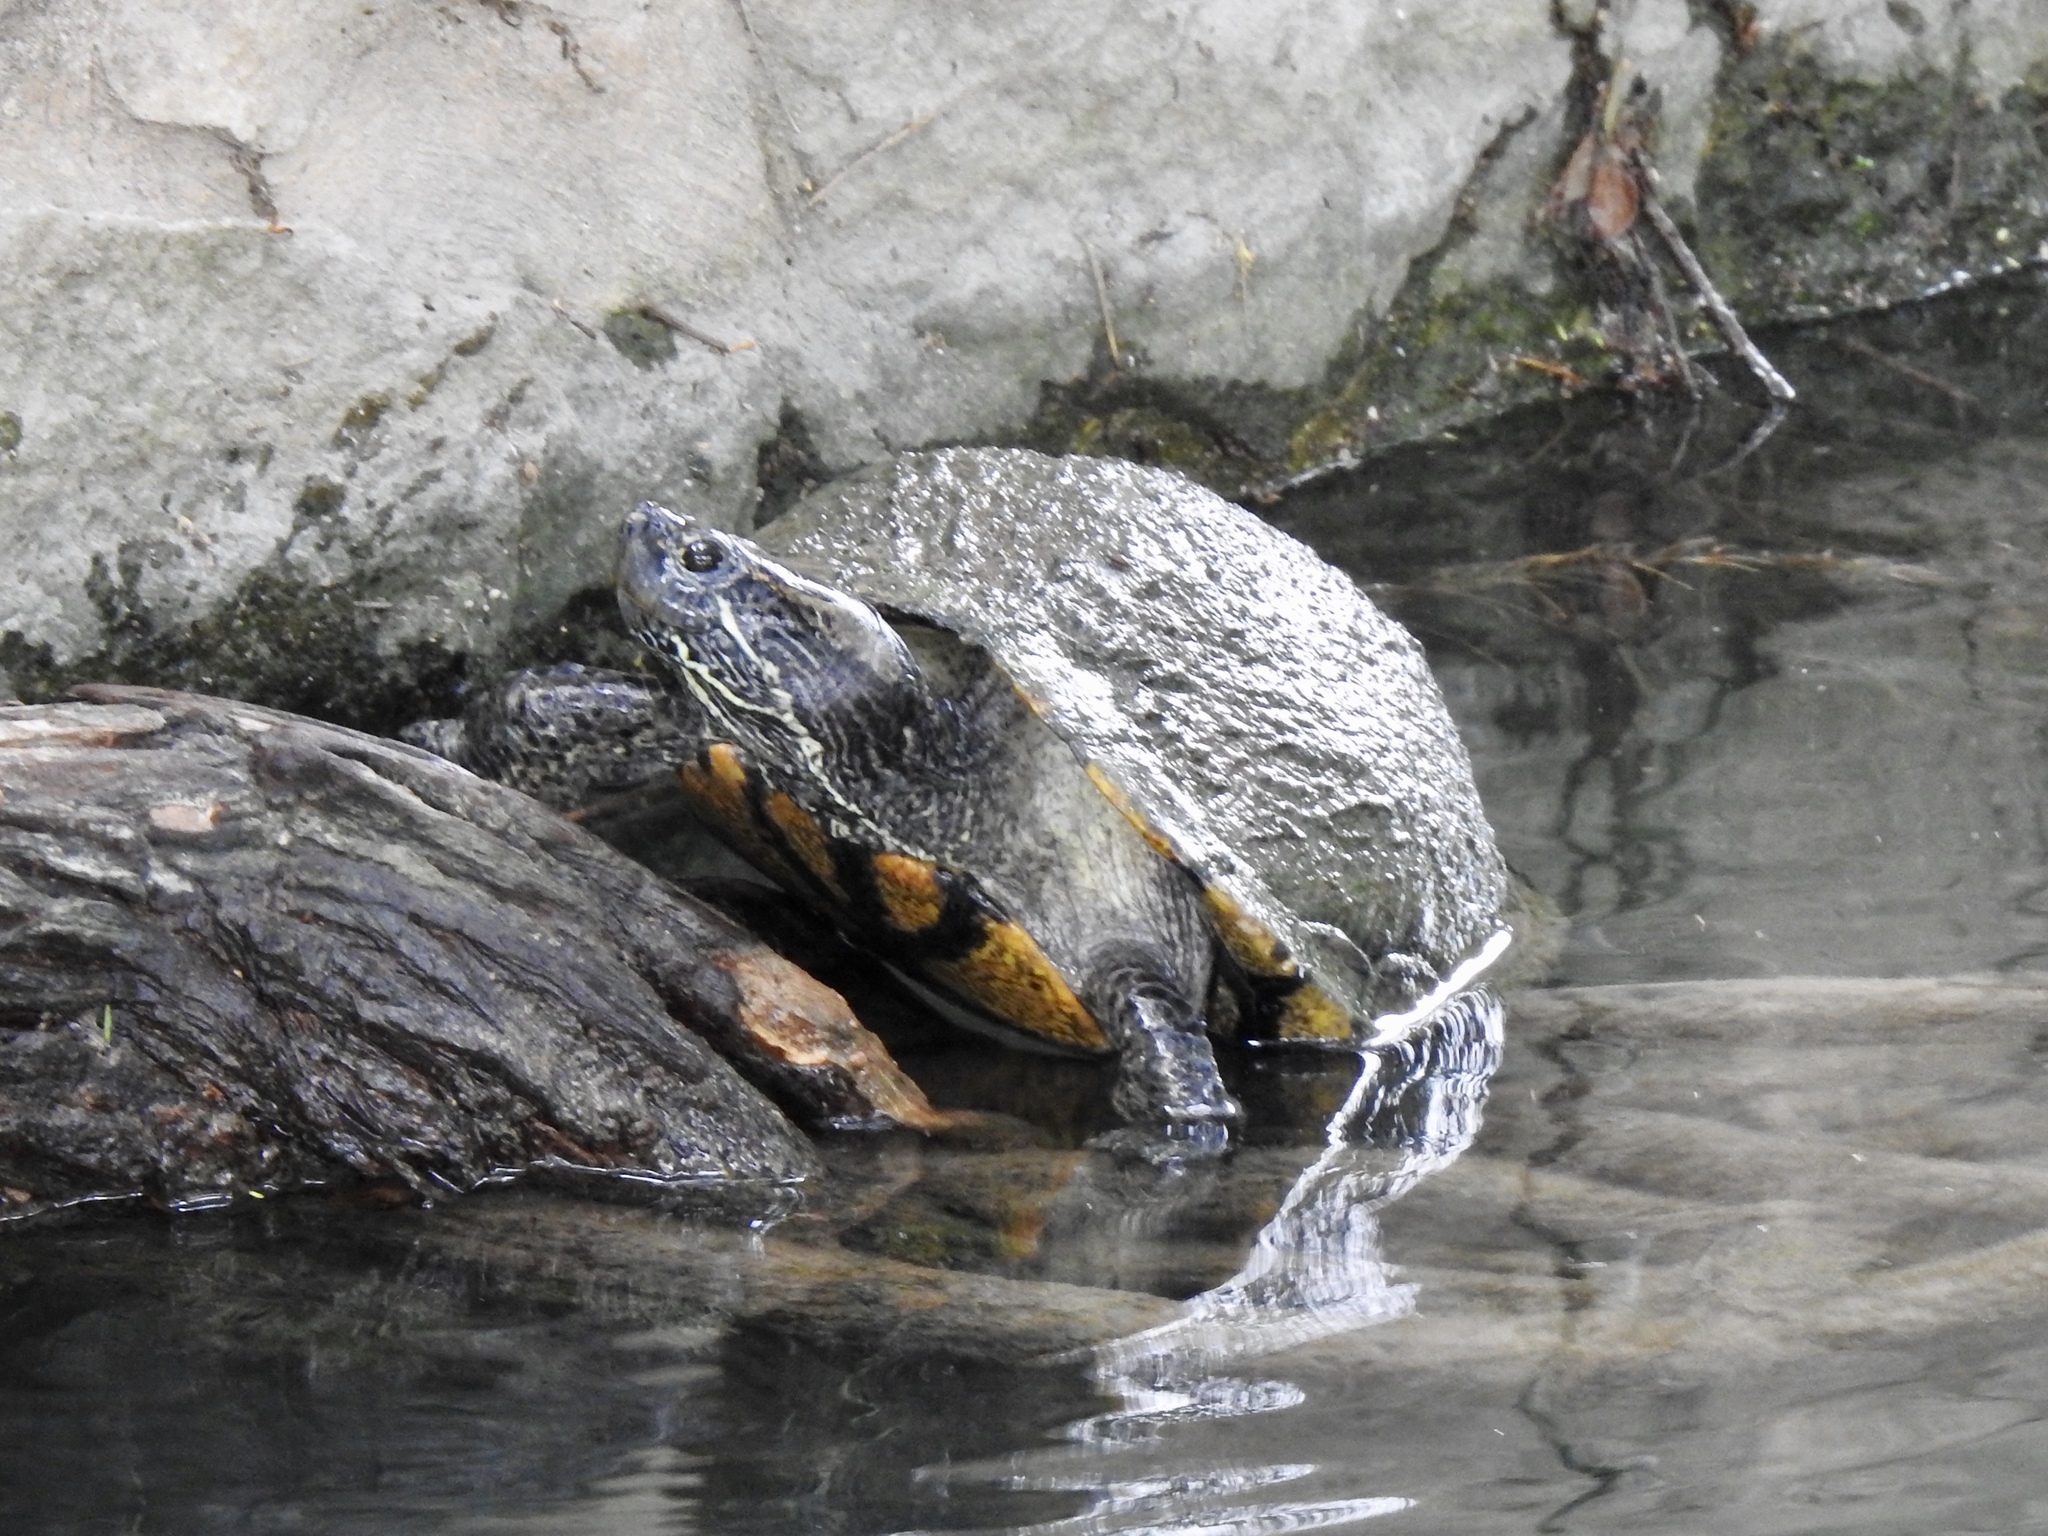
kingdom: Animalia
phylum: Chordata
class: Testudines
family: Emydidae
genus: Trachemys
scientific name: Trachemys scripta
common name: Slider
